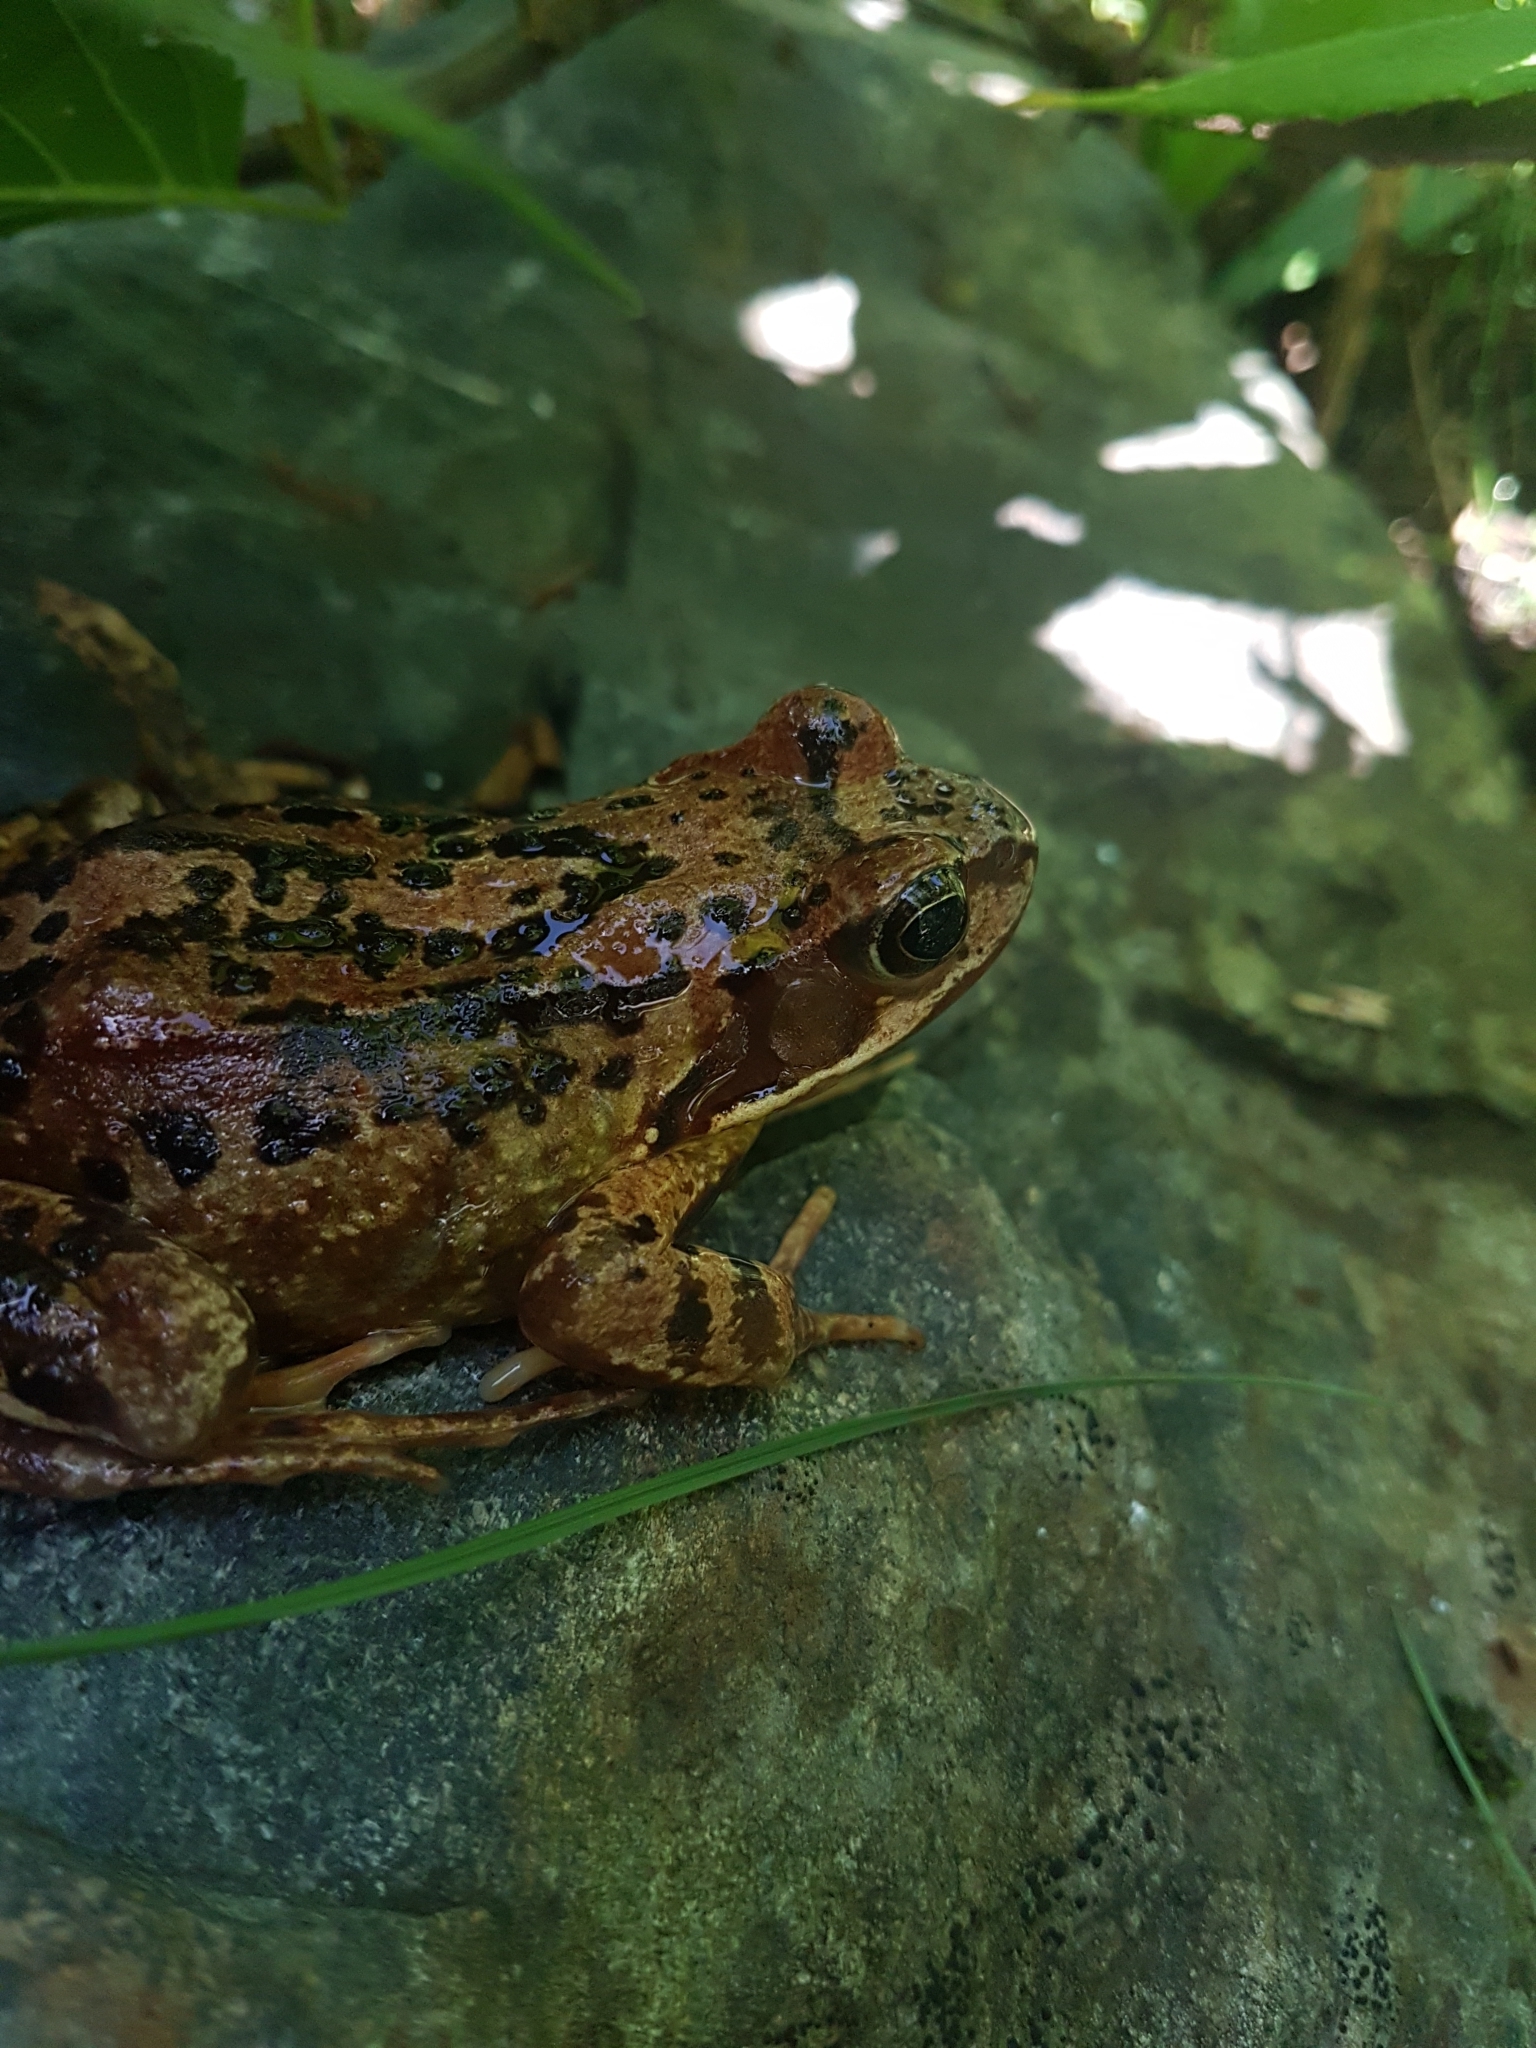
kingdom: Animalia
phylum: Chordata
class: Amphibia
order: Anura
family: Ranidae
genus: Rana
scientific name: Rana temporaria
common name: Common frog
